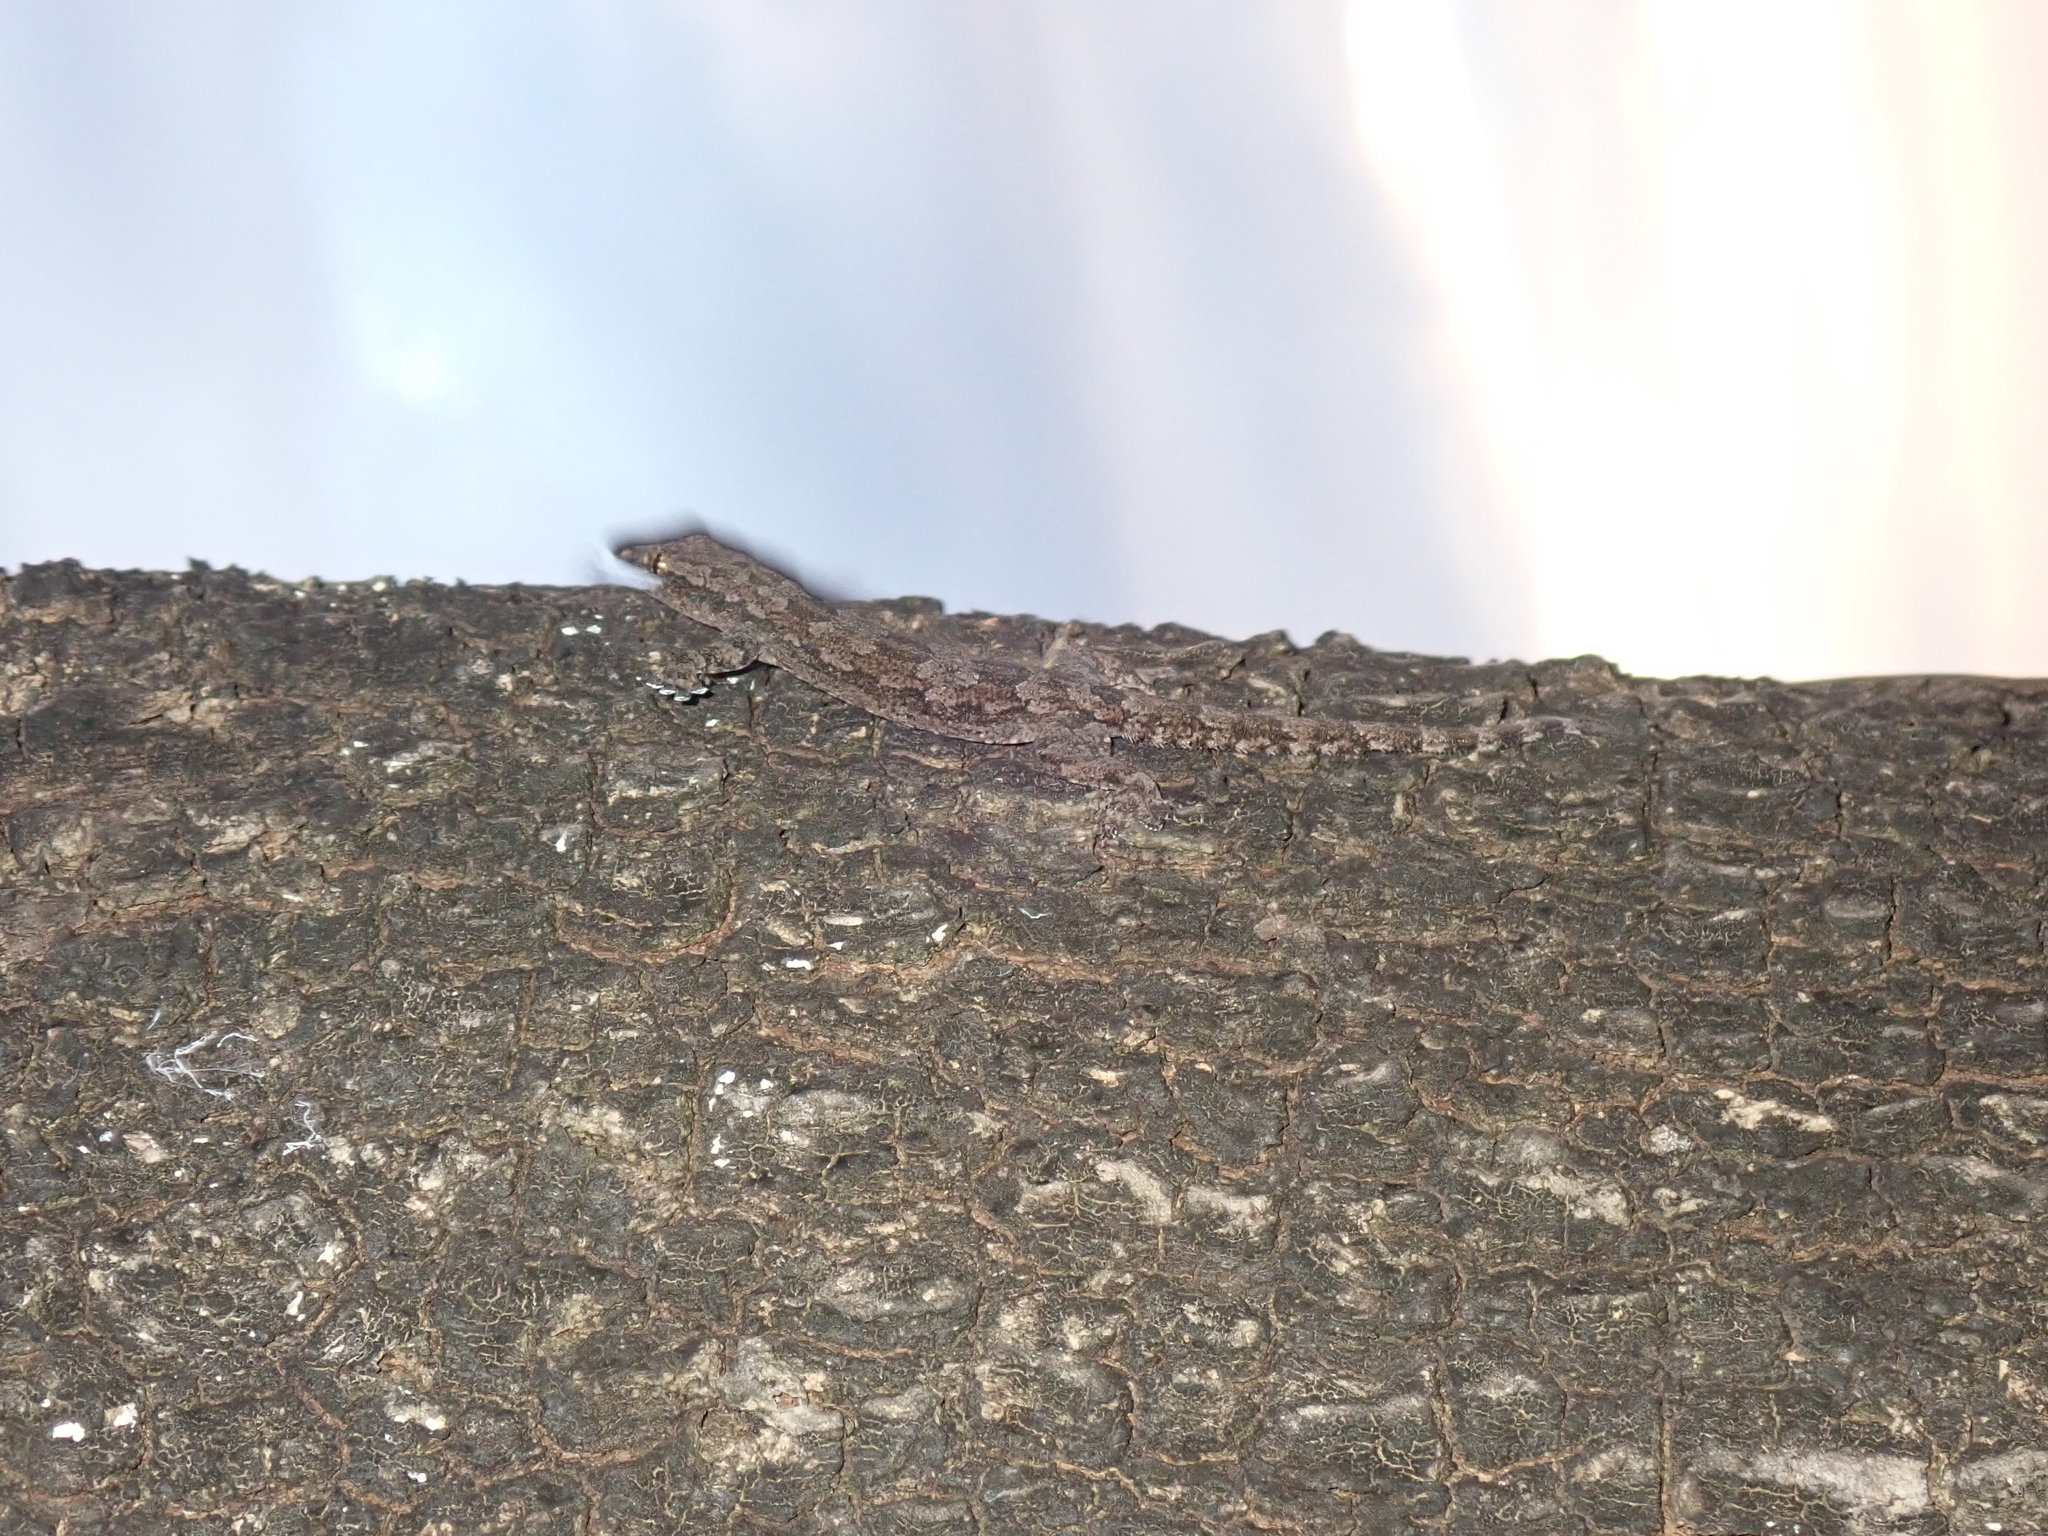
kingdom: Animalia
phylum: Chordata
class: Squamata
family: Gekkonidae
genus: Hemidactylus
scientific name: Hemidactylus platyurus
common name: Flat-tailed house gecko
